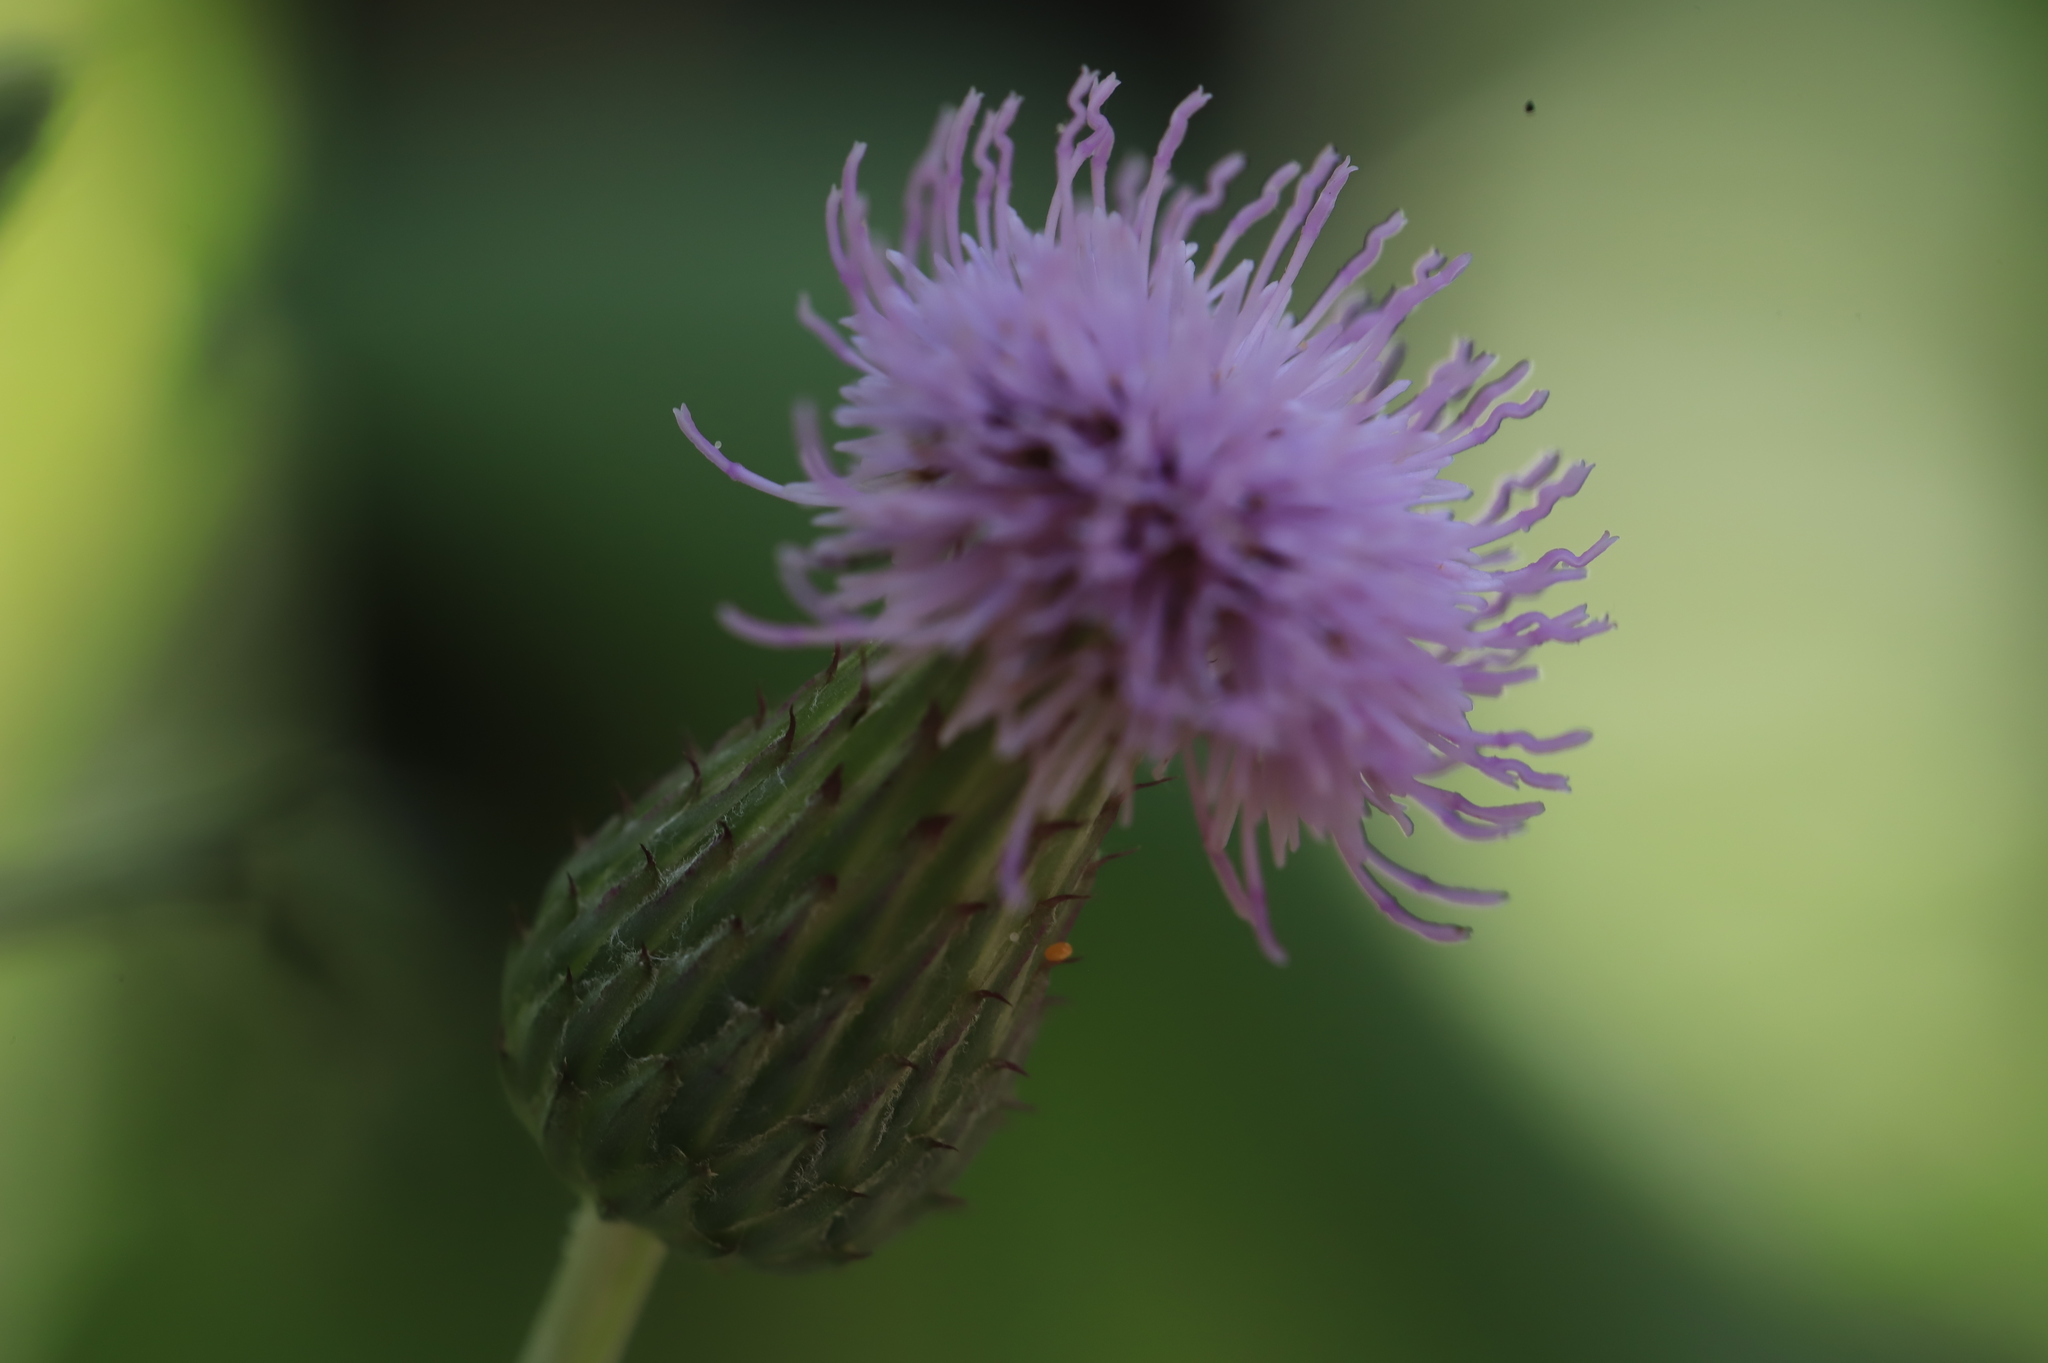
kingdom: Plantae
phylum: Tracheophyta
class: Magnoliopsida
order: Asterales
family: Asteraceae
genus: Cirsium
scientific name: Cirsium arvense
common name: Creeping thistle
